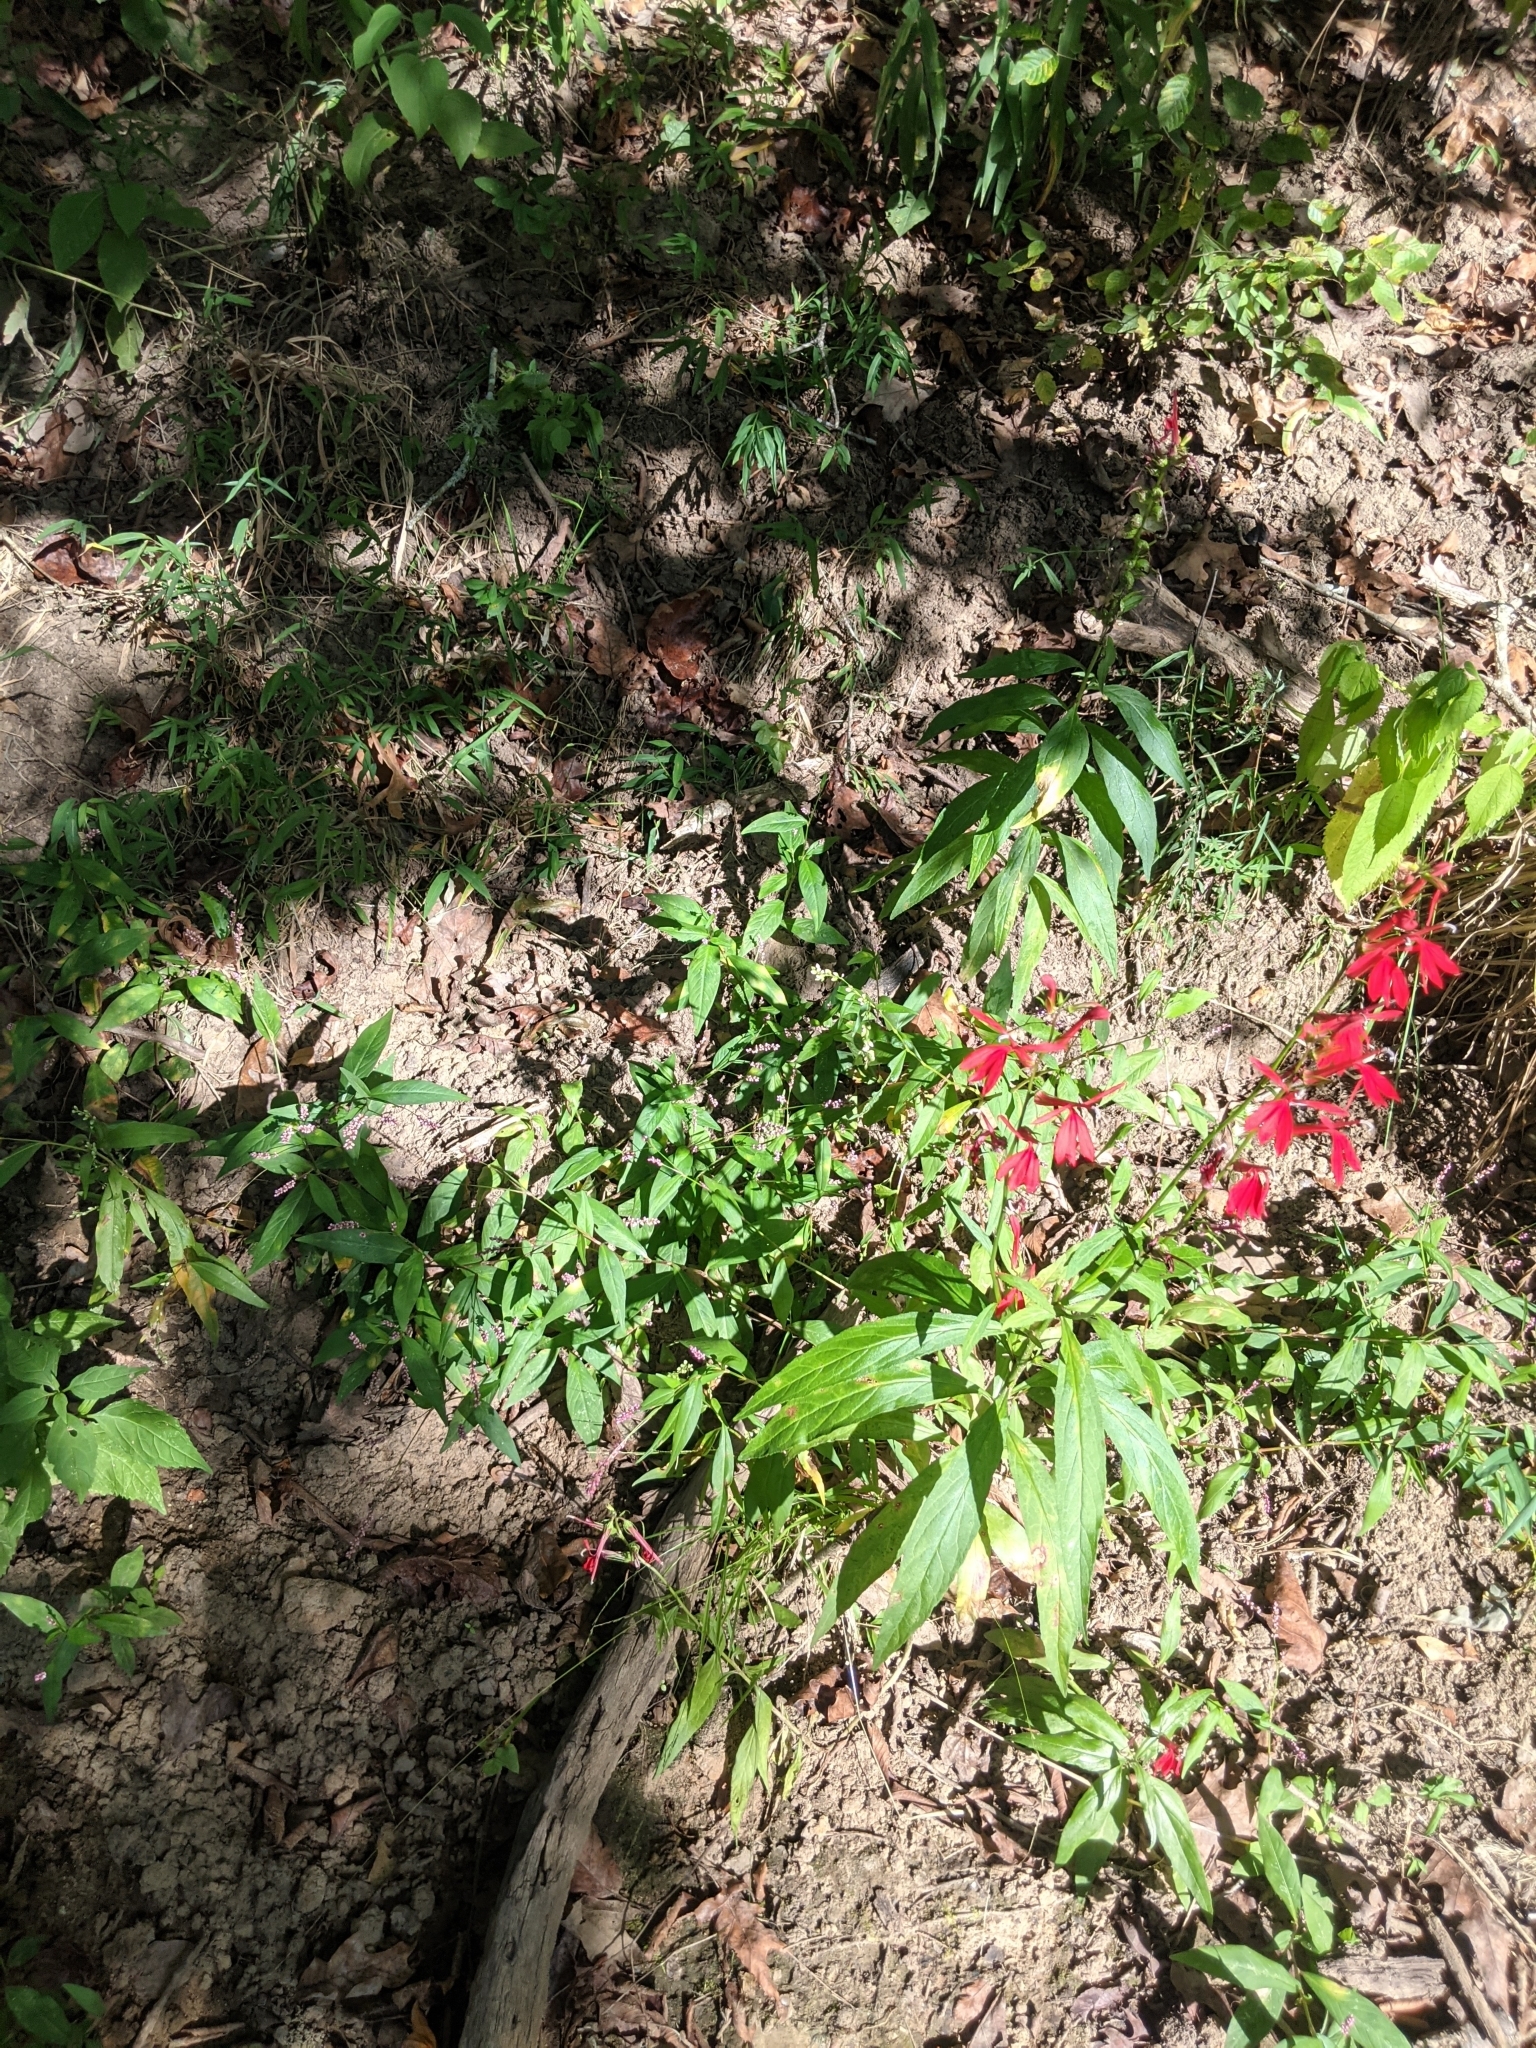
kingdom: Plantae
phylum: Tracheophyta
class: Magnoliopsida
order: Asterales
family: Campanulaceae
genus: Lobelia
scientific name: Lobelia cardinalis
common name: Cardinal flower
